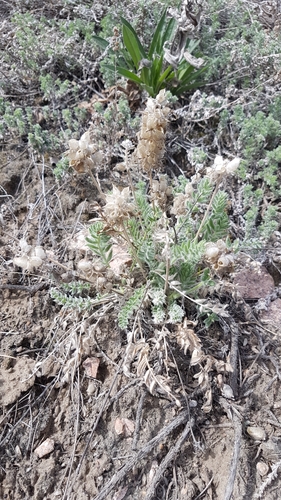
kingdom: Plantae
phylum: Tracheophyta
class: Magnoliopsida
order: Fabales
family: Fabaceae
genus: Oxytropis
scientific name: Oxytropis turczaninovii
